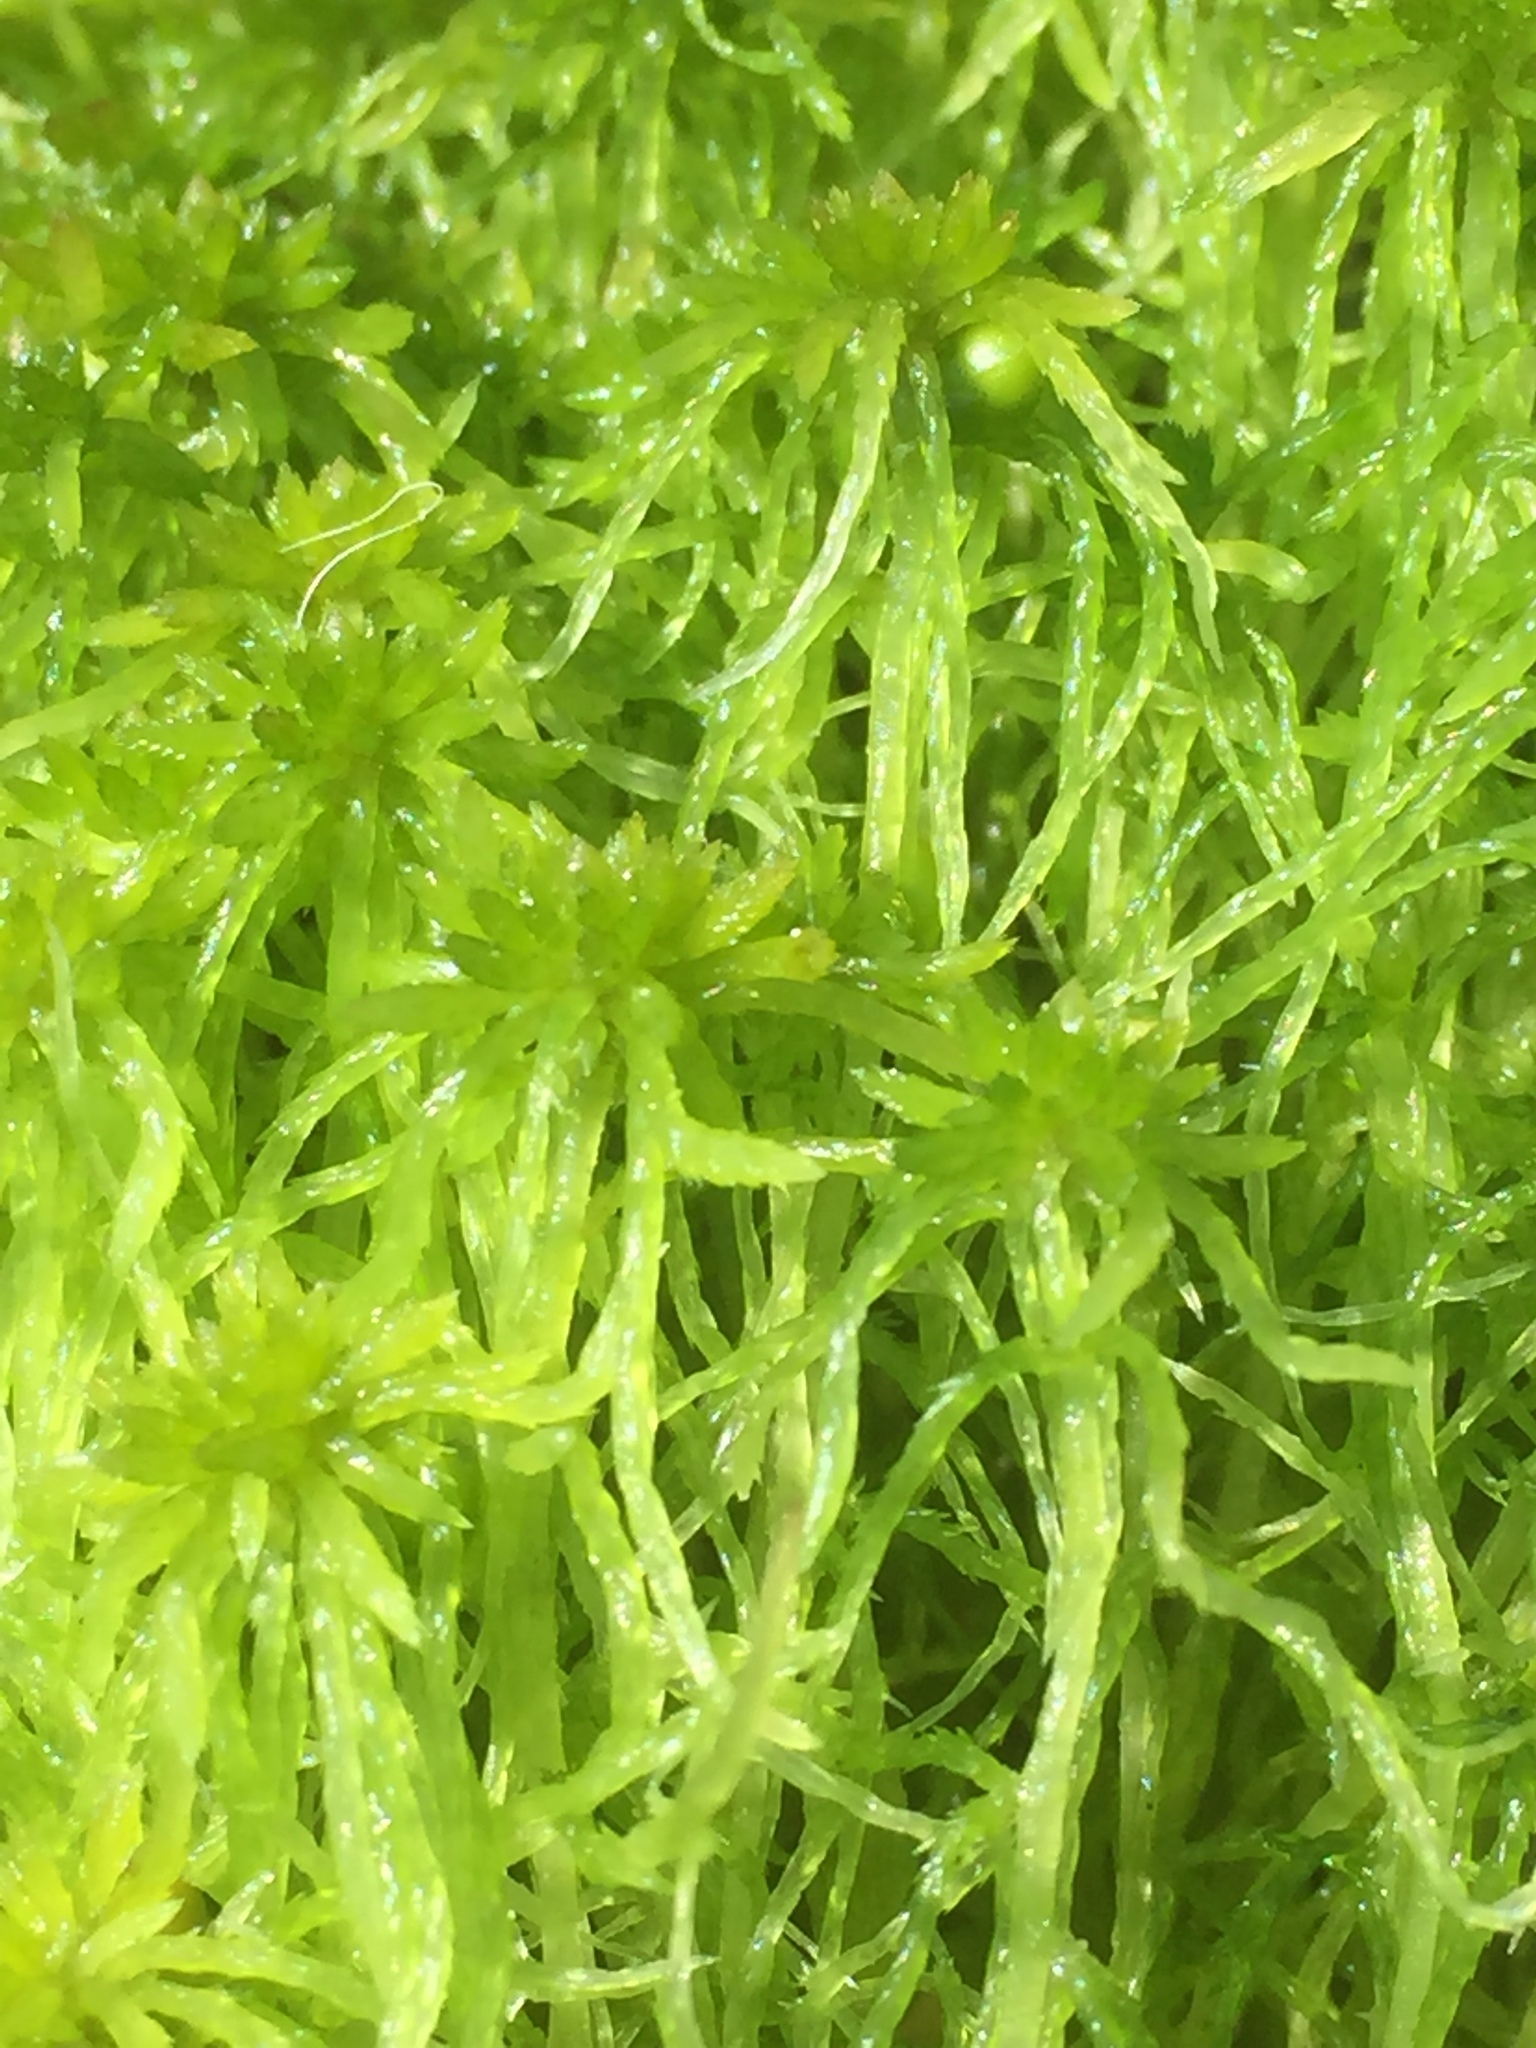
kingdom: Plantae
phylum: Bryophyta
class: Sphagnopsida
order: Sphagnales
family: Sphagnaceae
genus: Sphagnum
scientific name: Sphagnum fimbriatum
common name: Fringed peat moss
